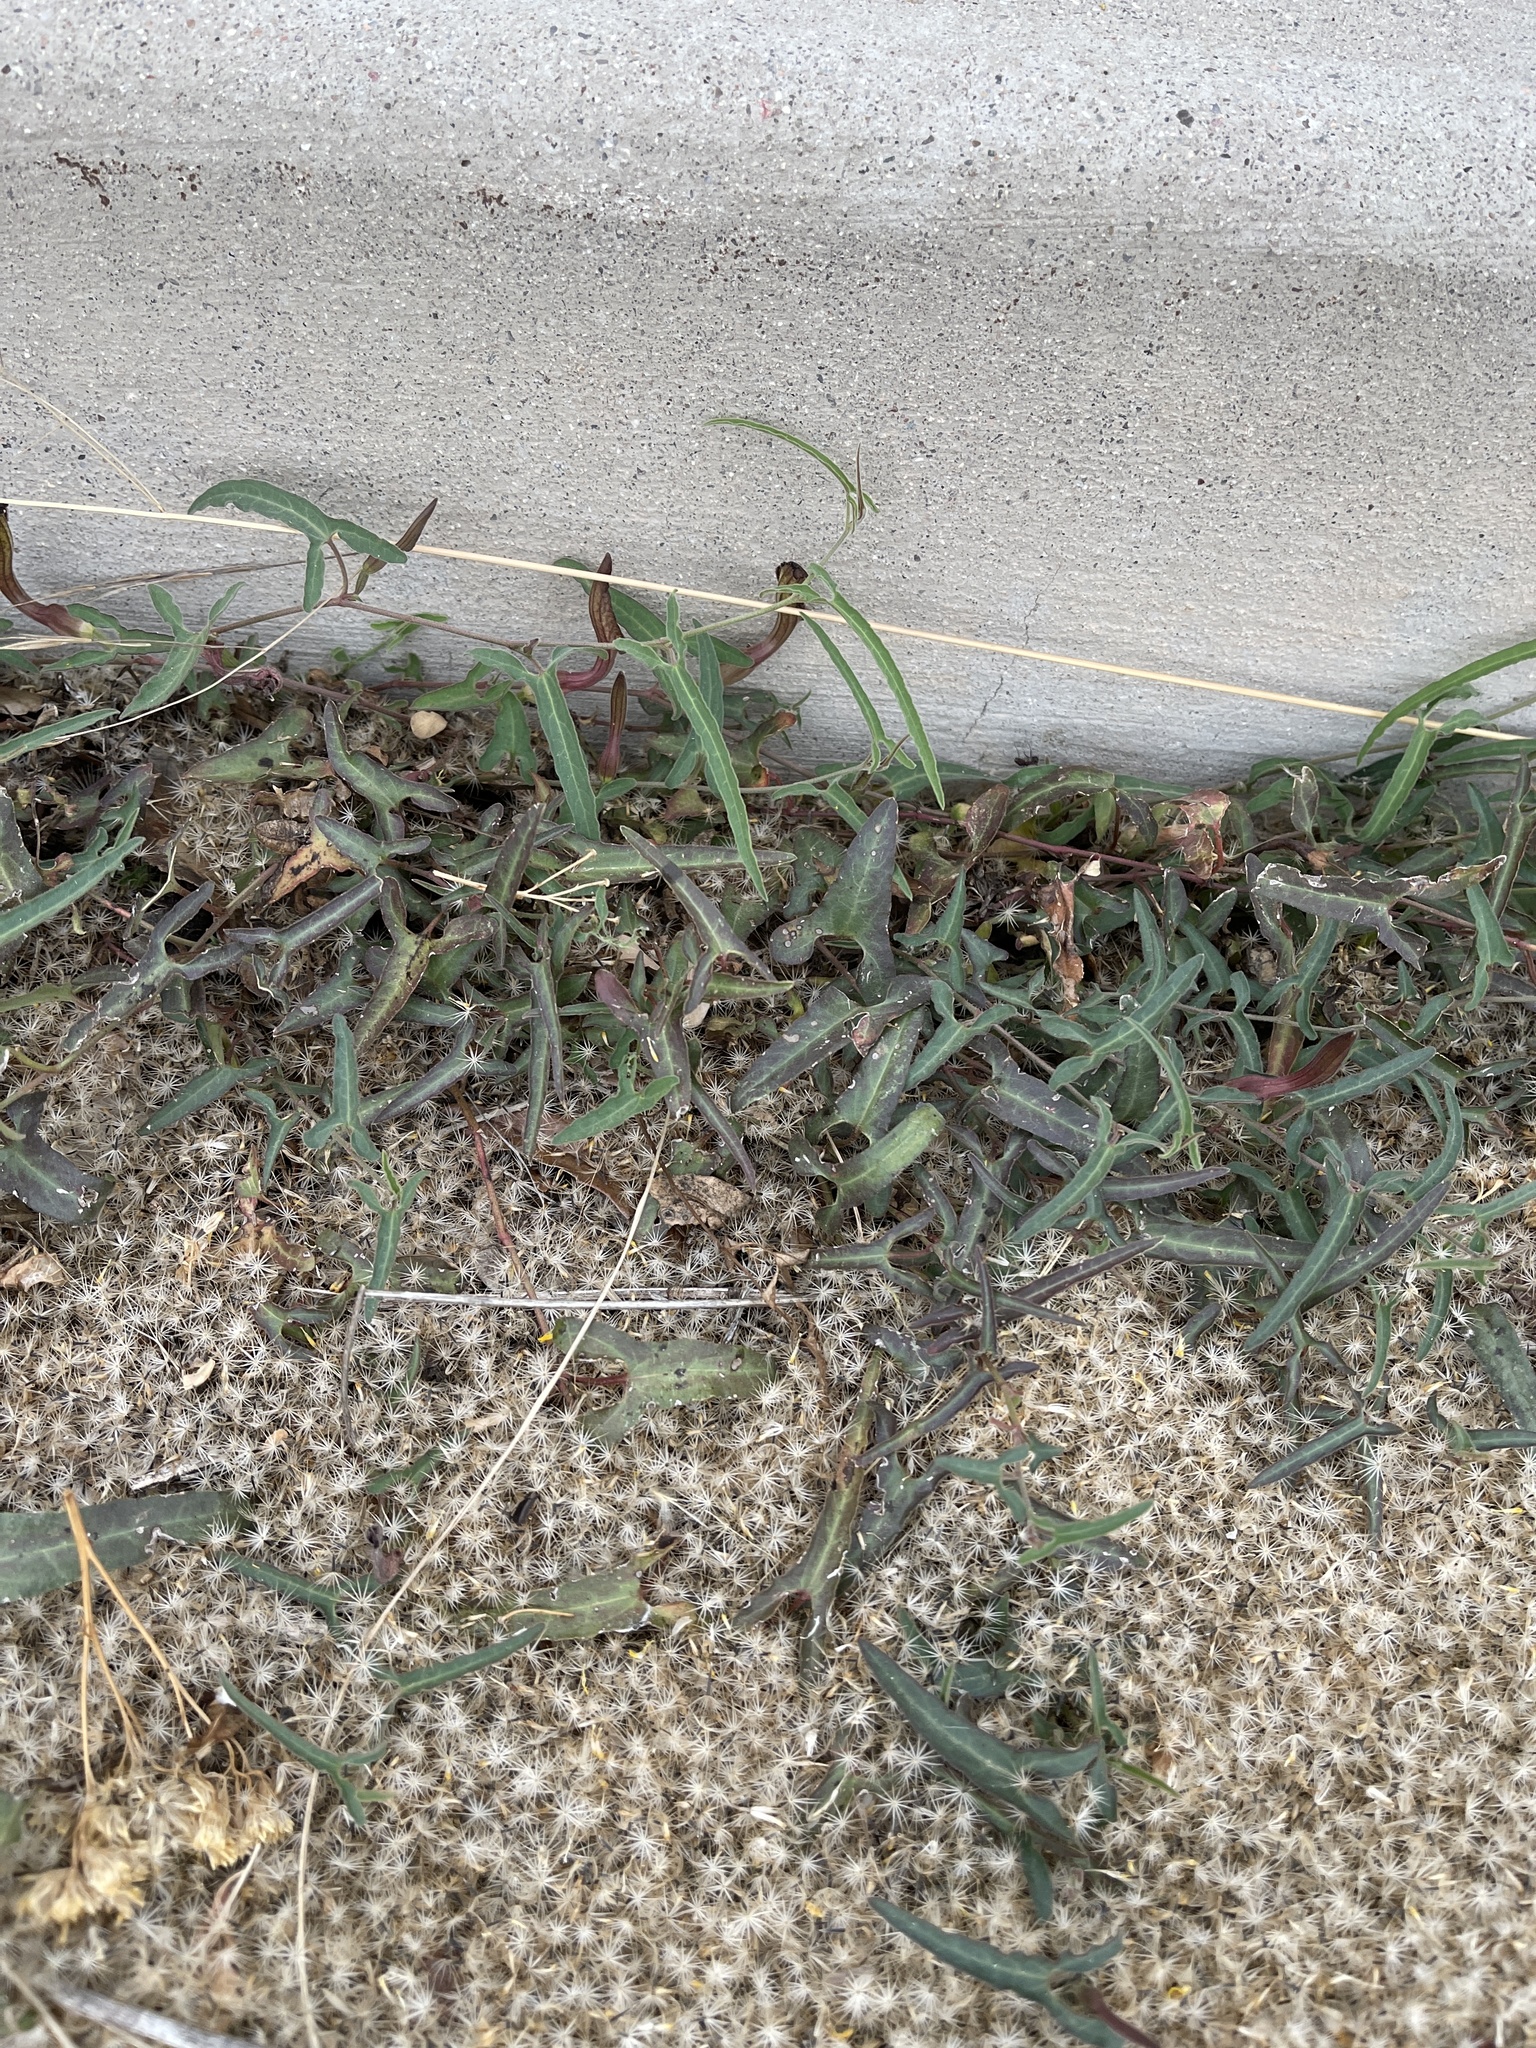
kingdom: Plantae
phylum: Tracheophyta
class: Magnoliopsida
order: Piperales
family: Aristolochiaceae
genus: Aristolochia
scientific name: Aristolochia watsonii
